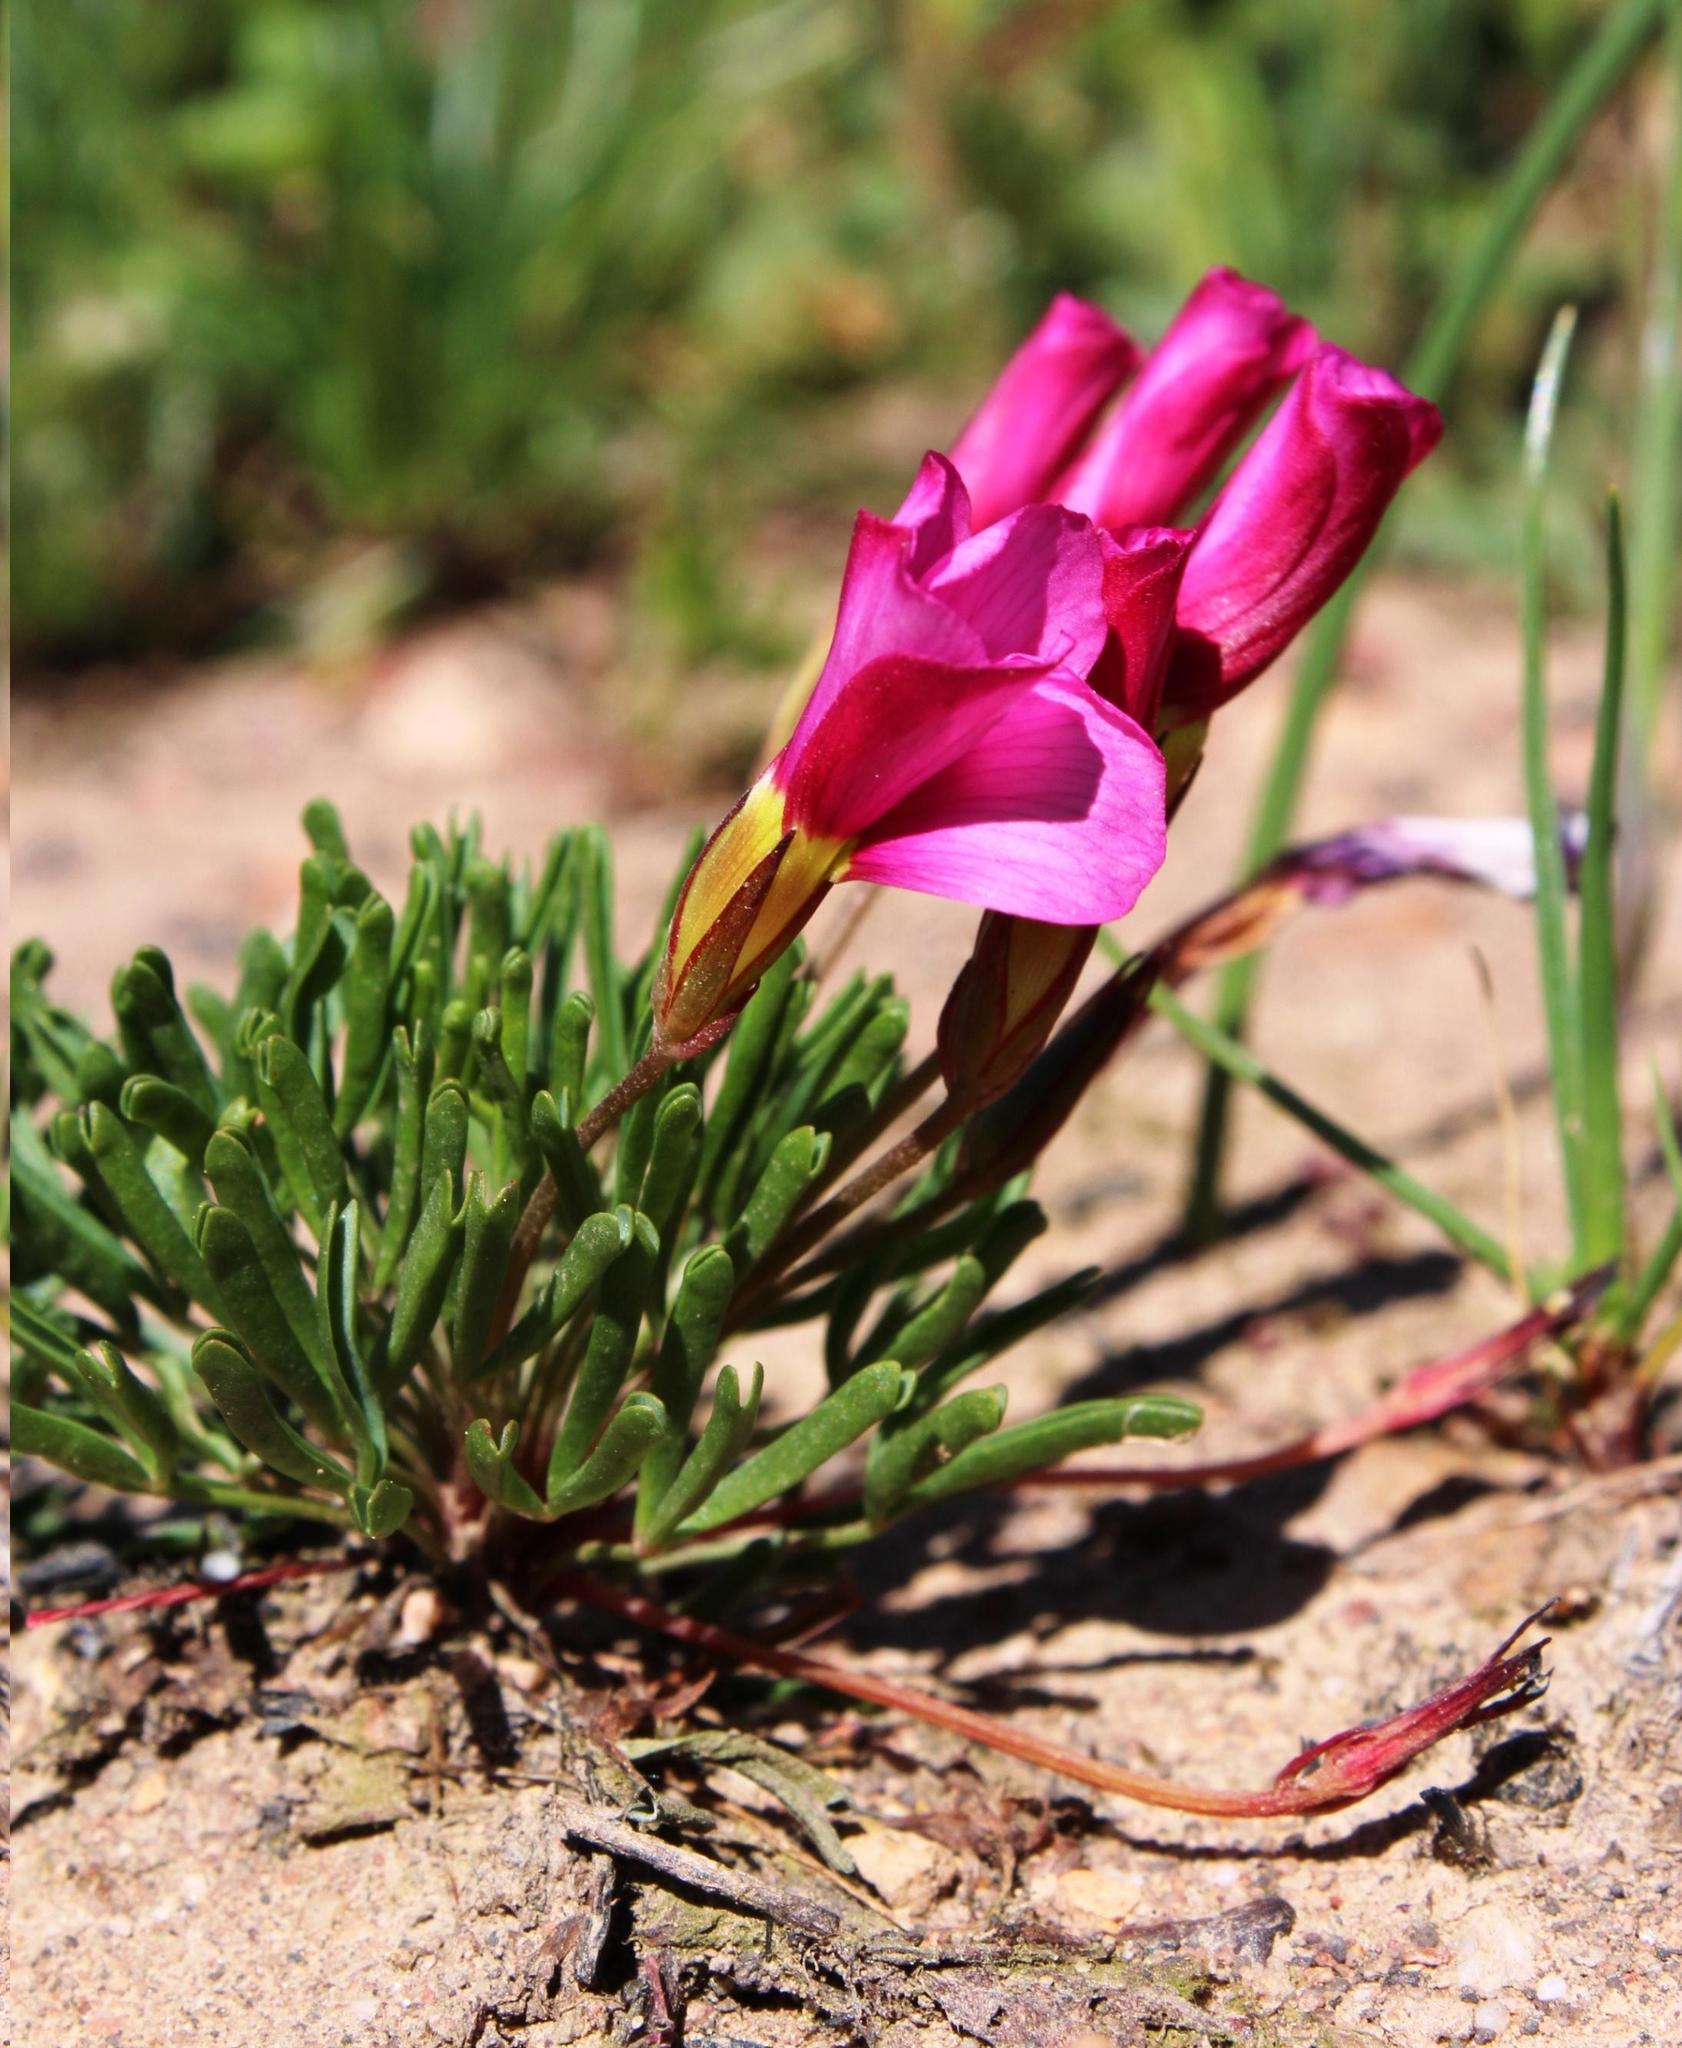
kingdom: Plantae
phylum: Tracheophyta
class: Magnoliopsida
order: Oxalidales
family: Oxalidaceae
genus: Oxalis
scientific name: Oxalis glabra
